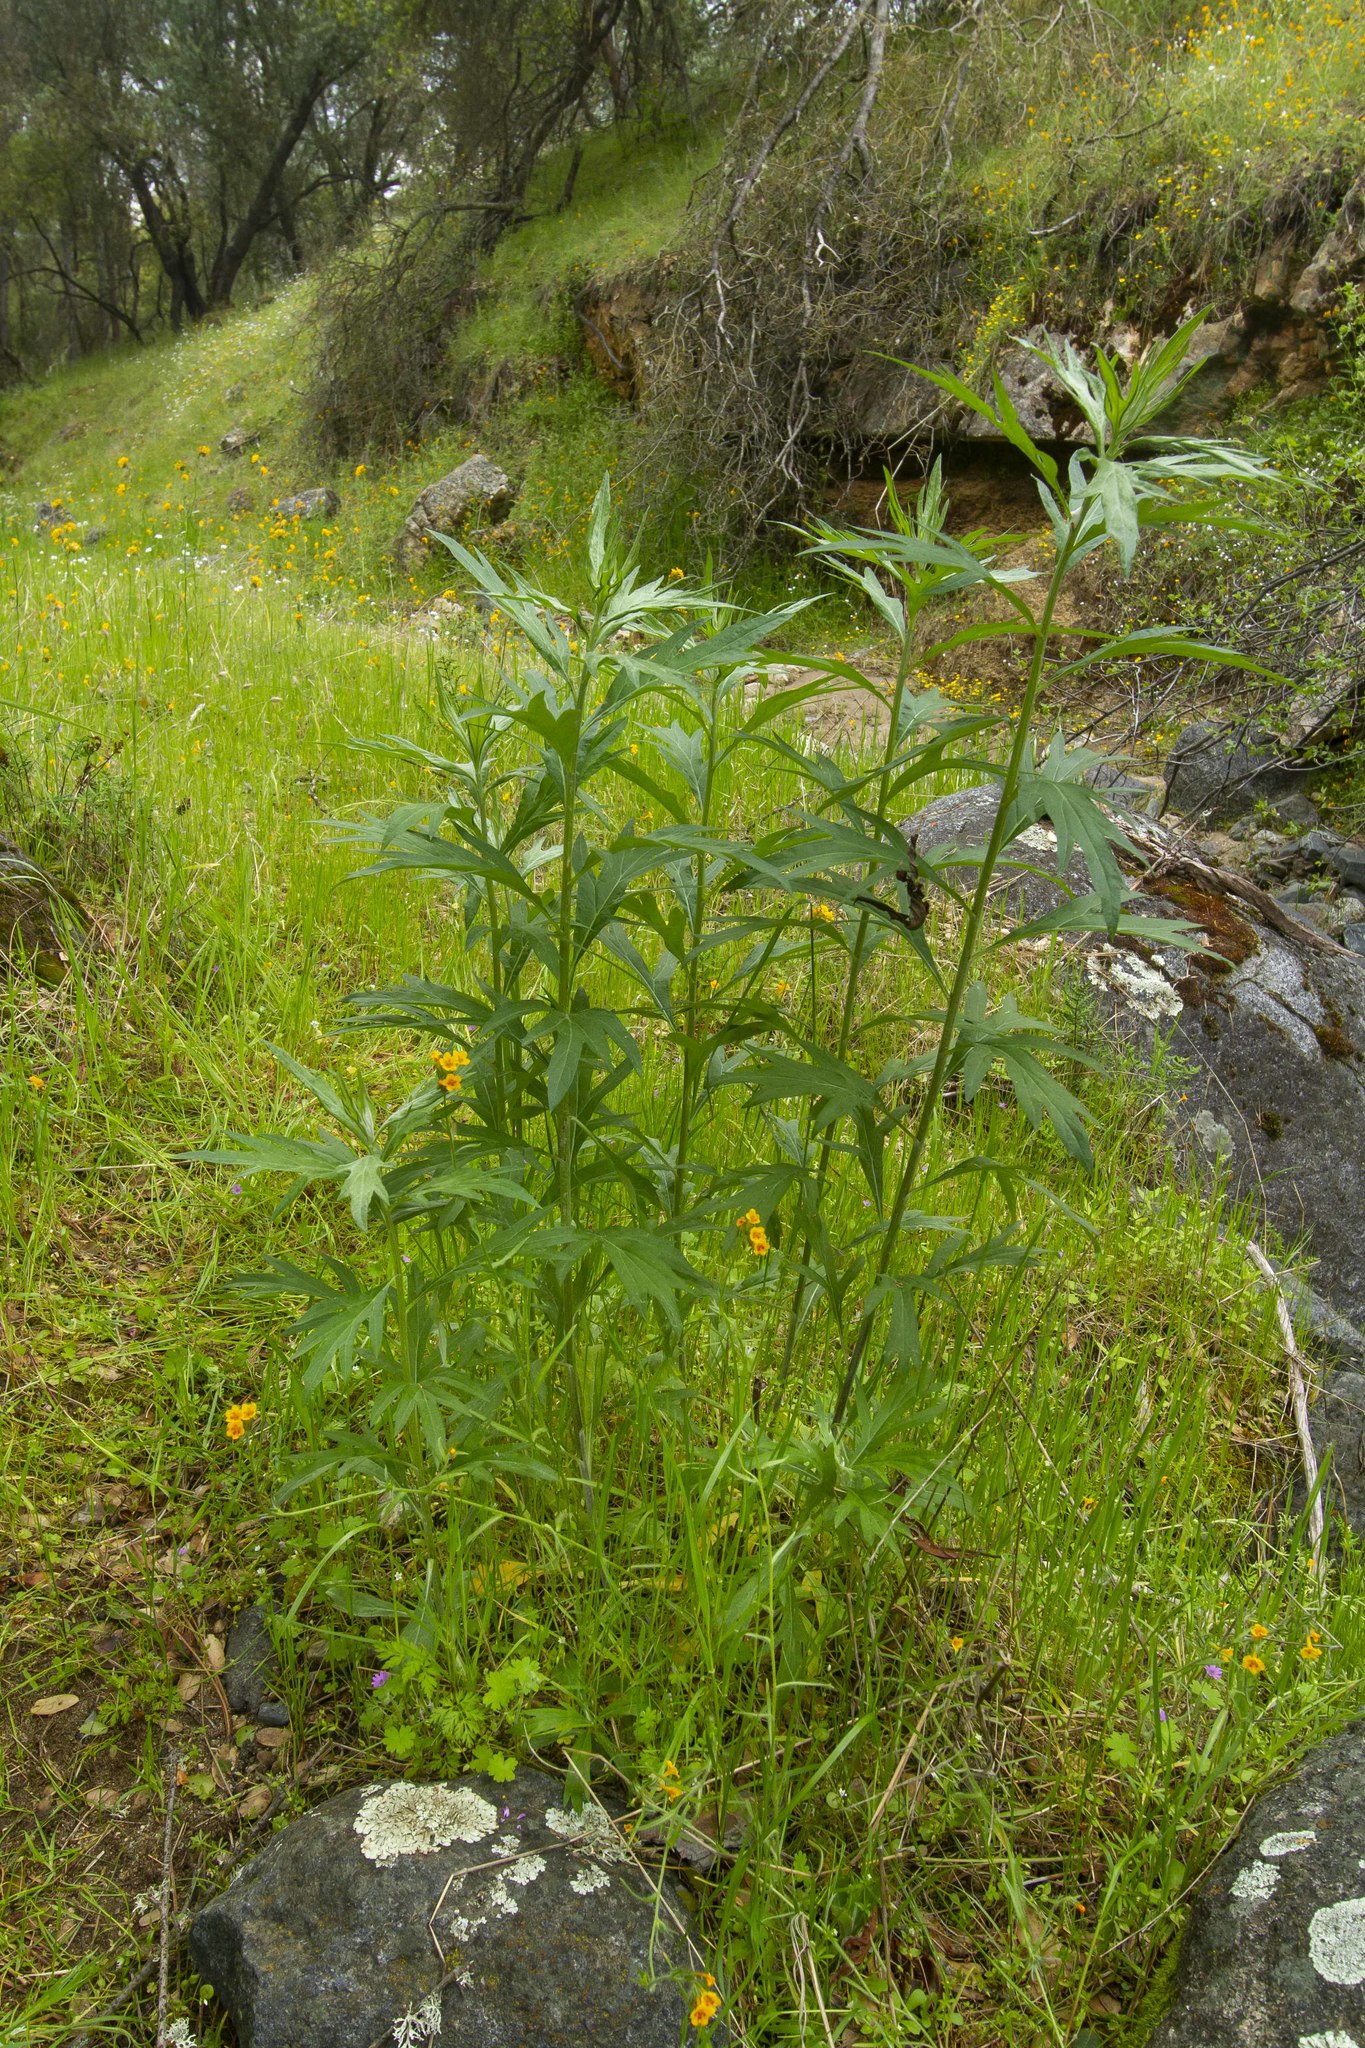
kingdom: Plantae
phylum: Tracheophyta
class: Magnoliopsida
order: Asterales
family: Asteraceae
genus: Artemisia
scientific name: Artemisia douglasiana
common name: Northwest mugwort
